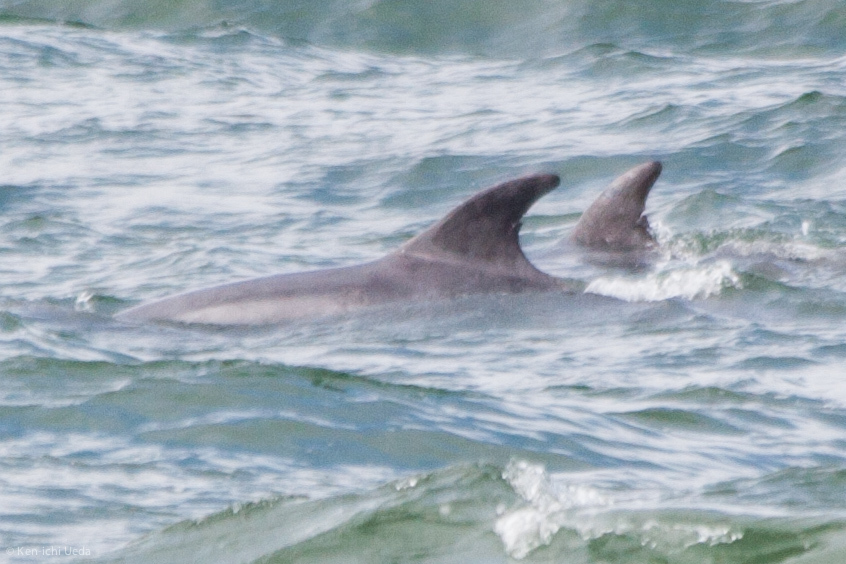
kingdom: Animalia
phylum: Chordata
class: Mammalia
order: Cetacea
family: Delphinidae
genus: Tursiops
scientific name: Tursiops truncatus
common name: Bottlenose dolphin
